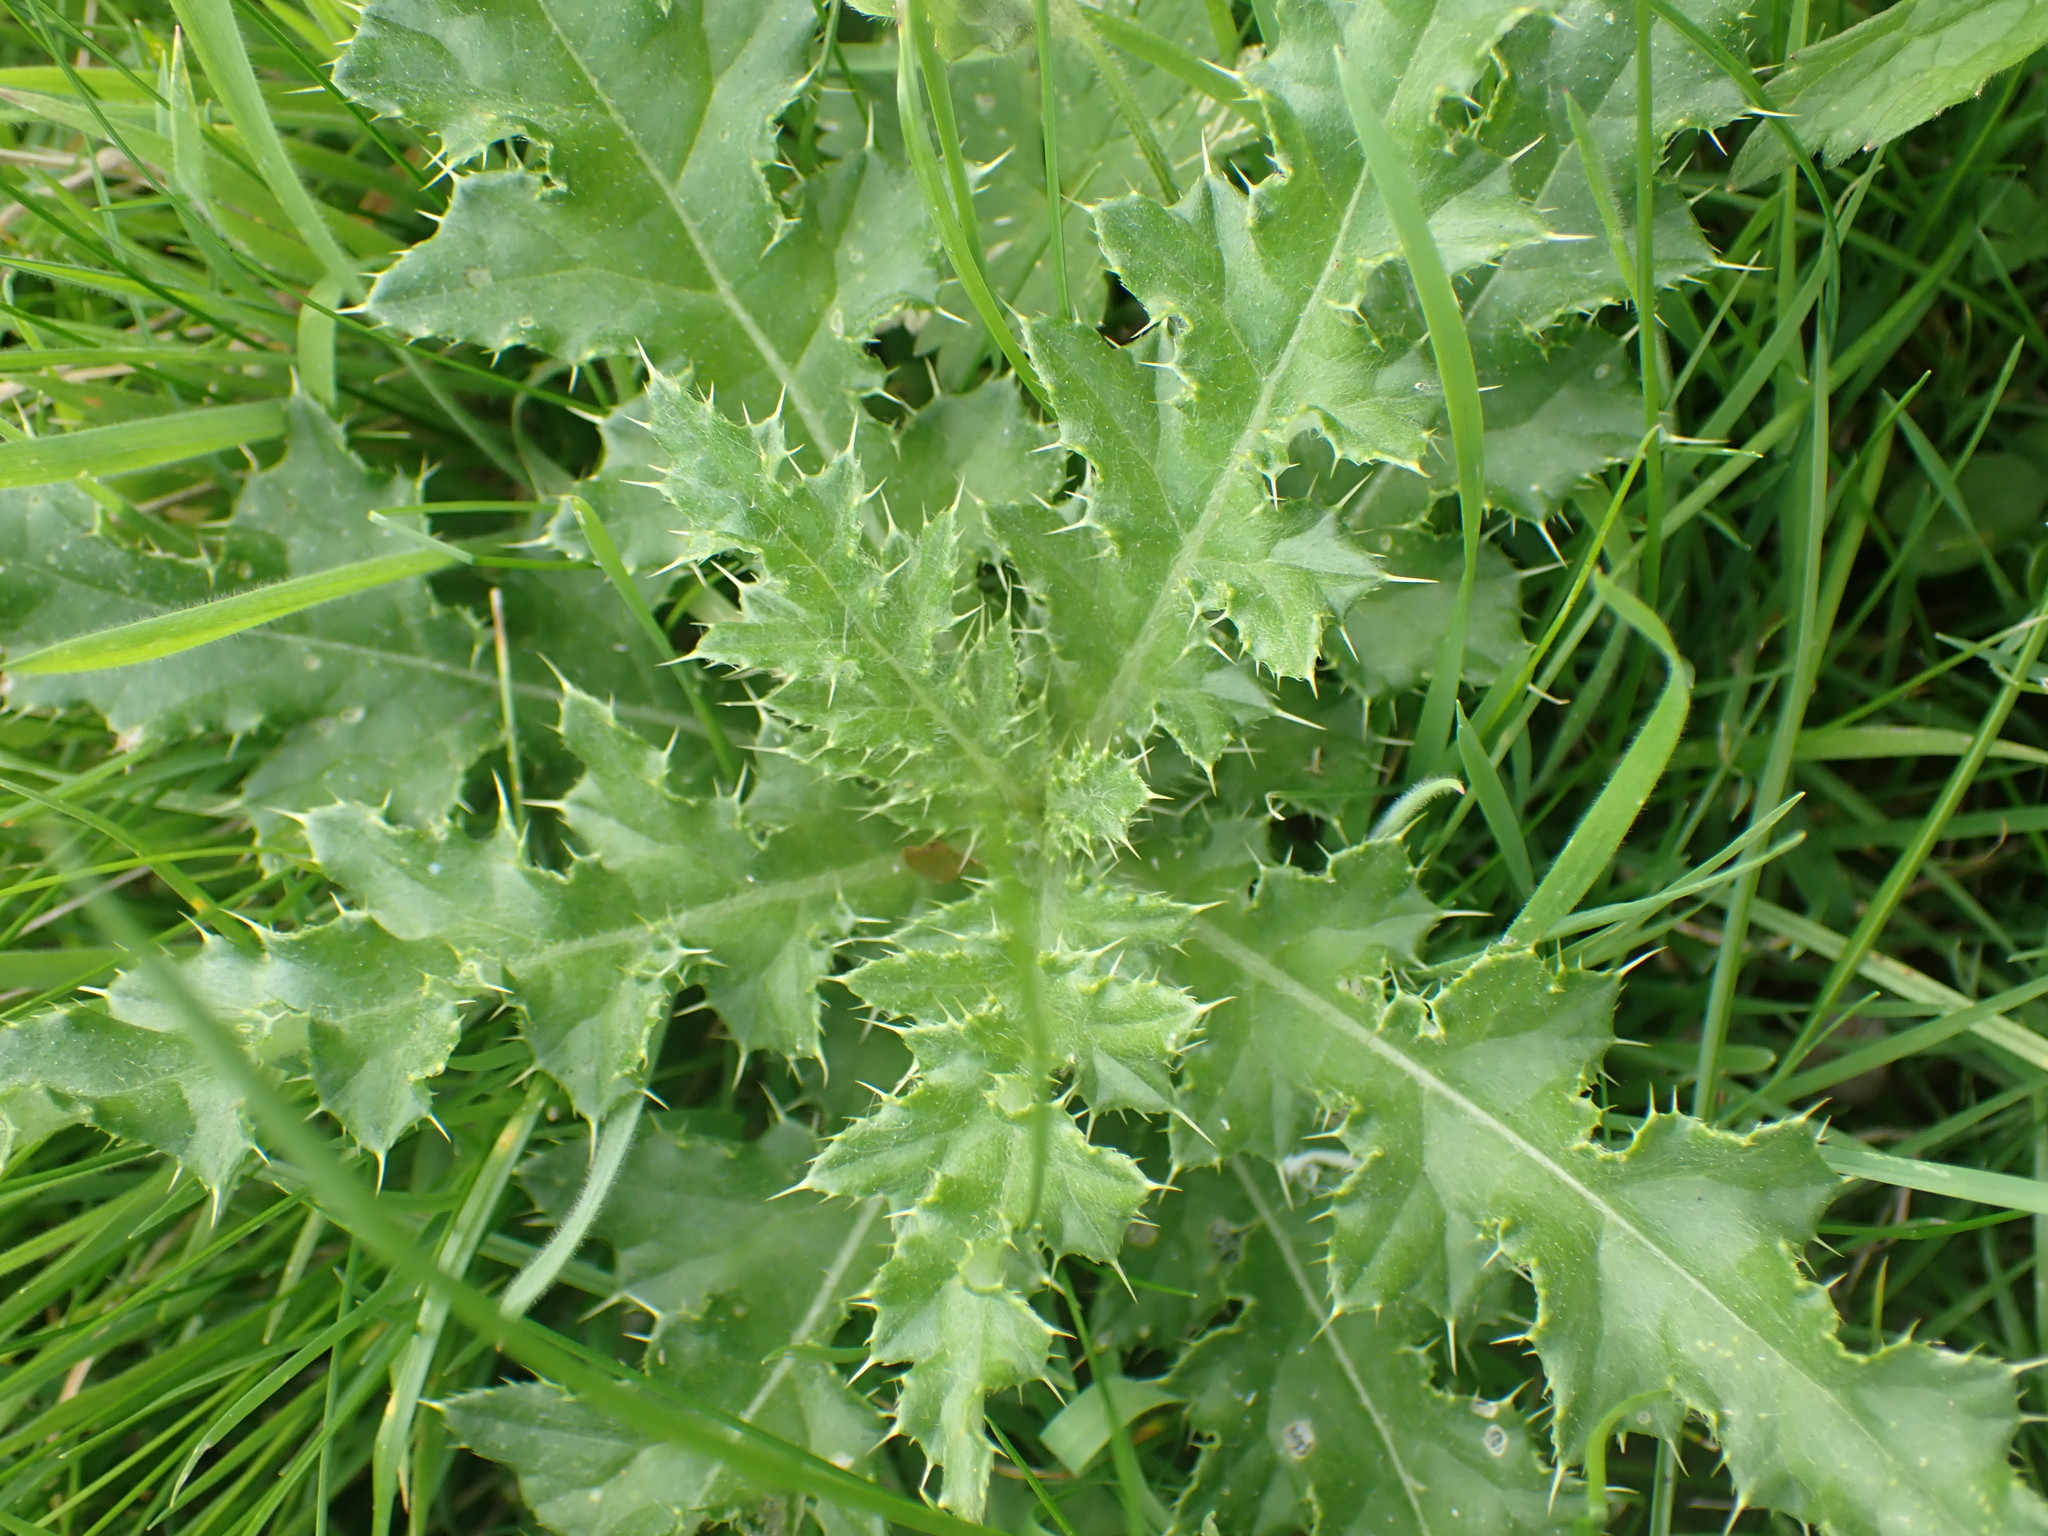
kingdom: Plantae
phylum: Tracheophyta
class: Magnoliopsida
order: Asterales
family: Asteraceae
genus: Cirsium
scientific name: Cirsium arvense
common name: Creeping thistle
